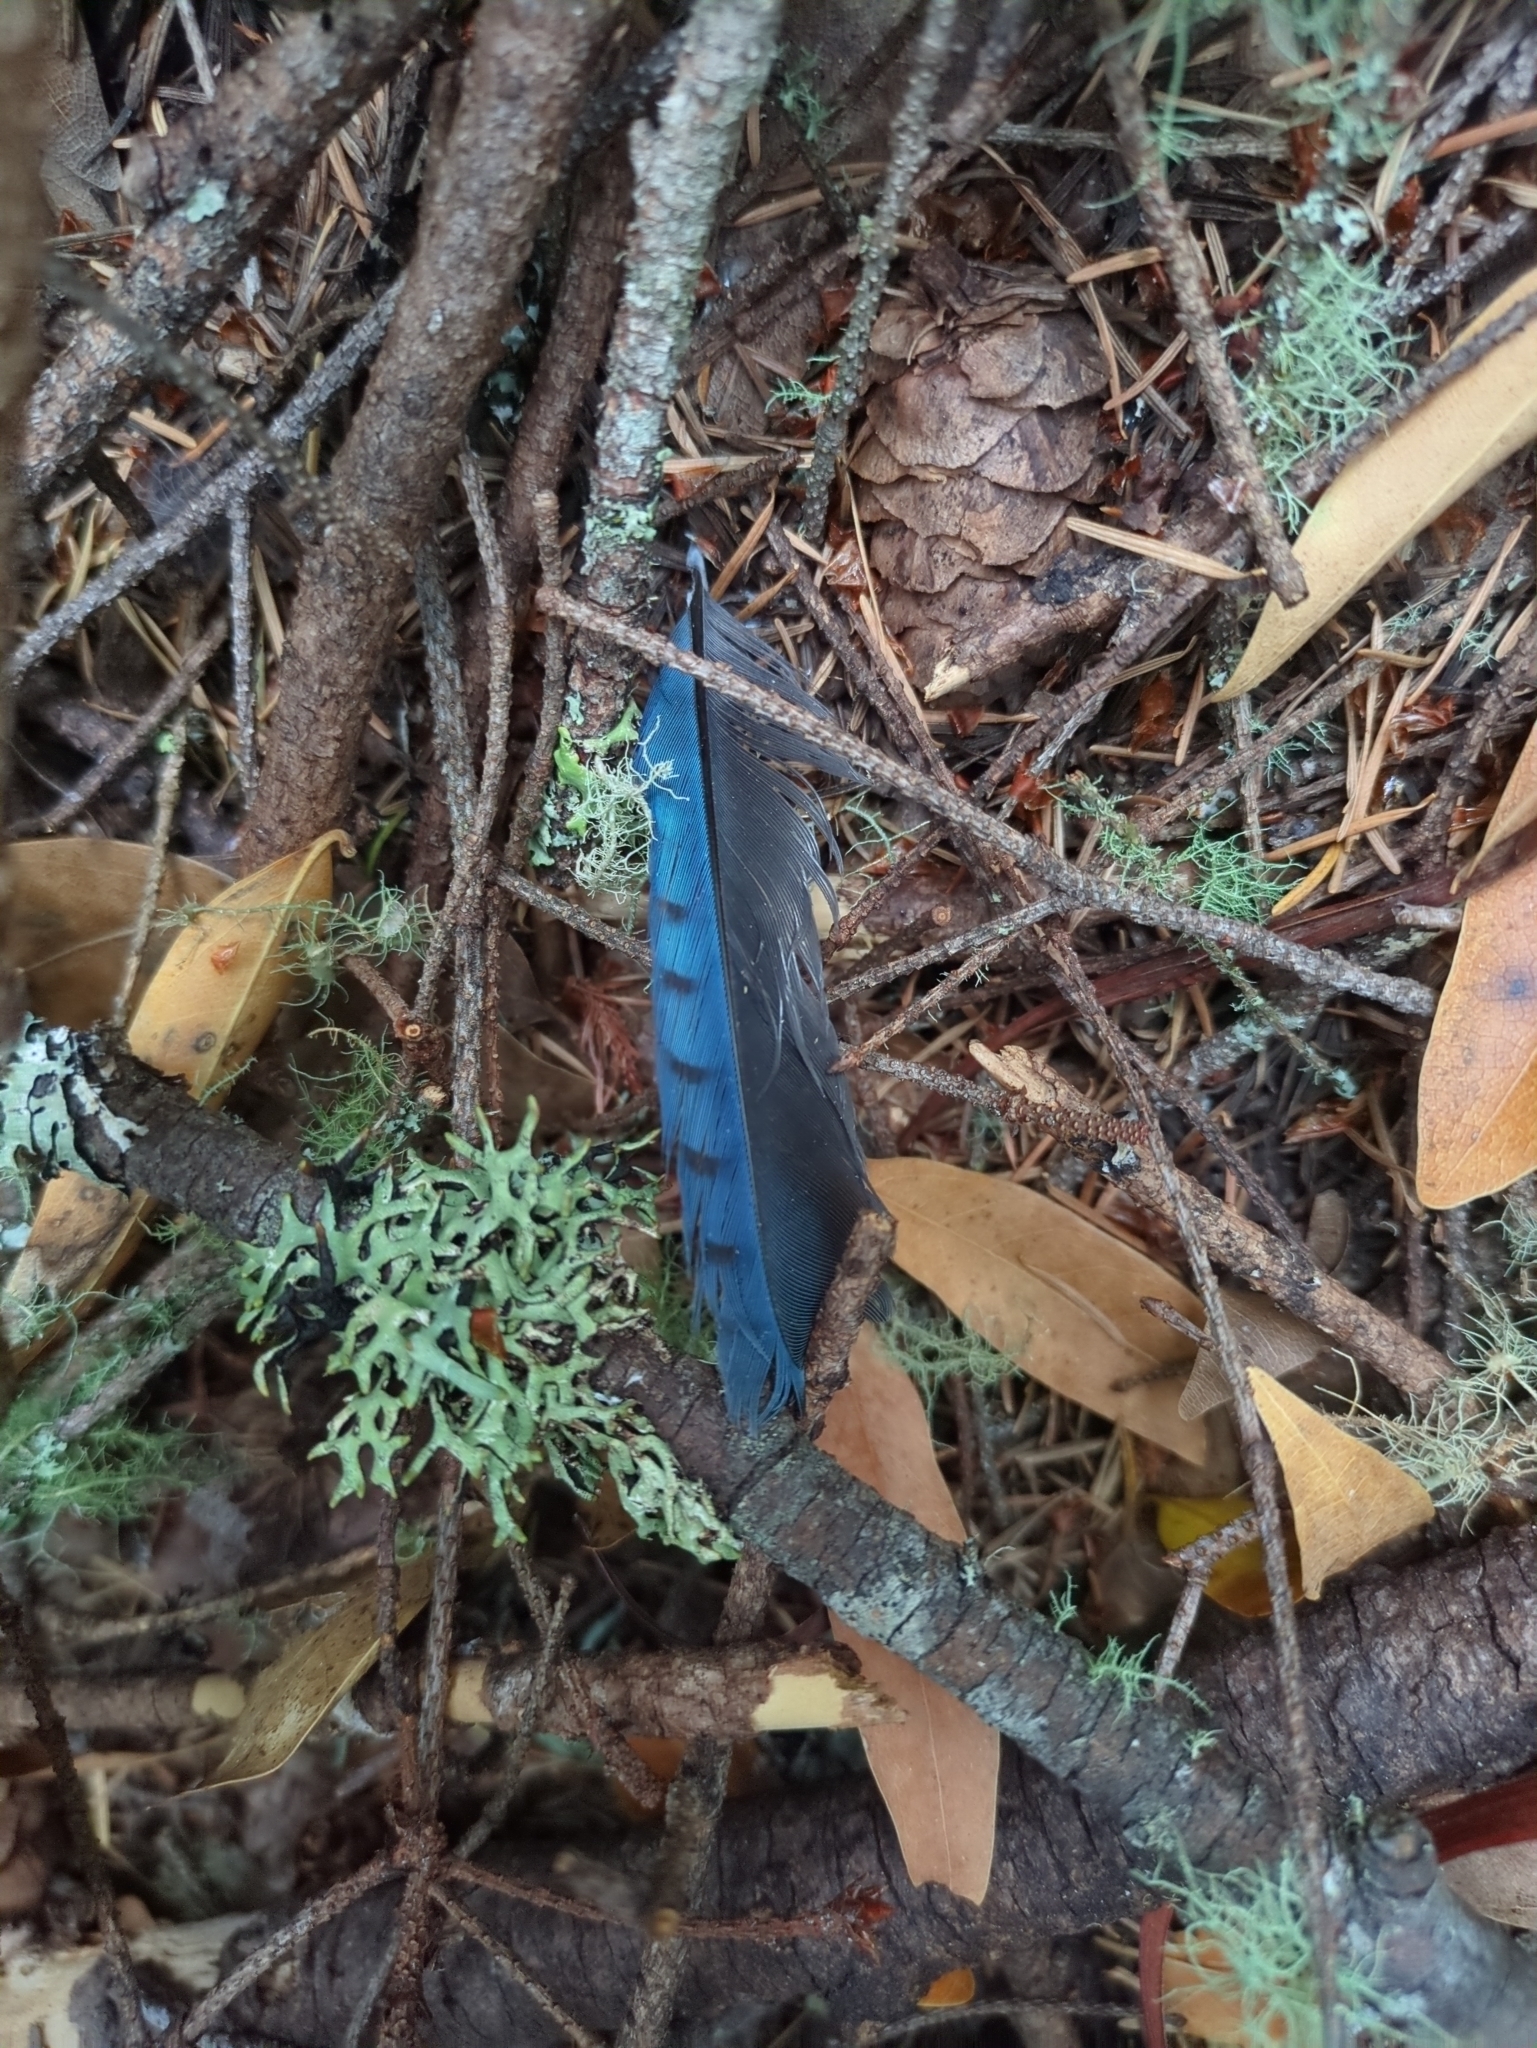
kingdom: Animalia
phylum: Chordata
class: Aves
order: Passeriformes
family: Corvidae
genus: Cyanocitta
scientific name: Cyanocitta stelleri
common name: Steller's jay
